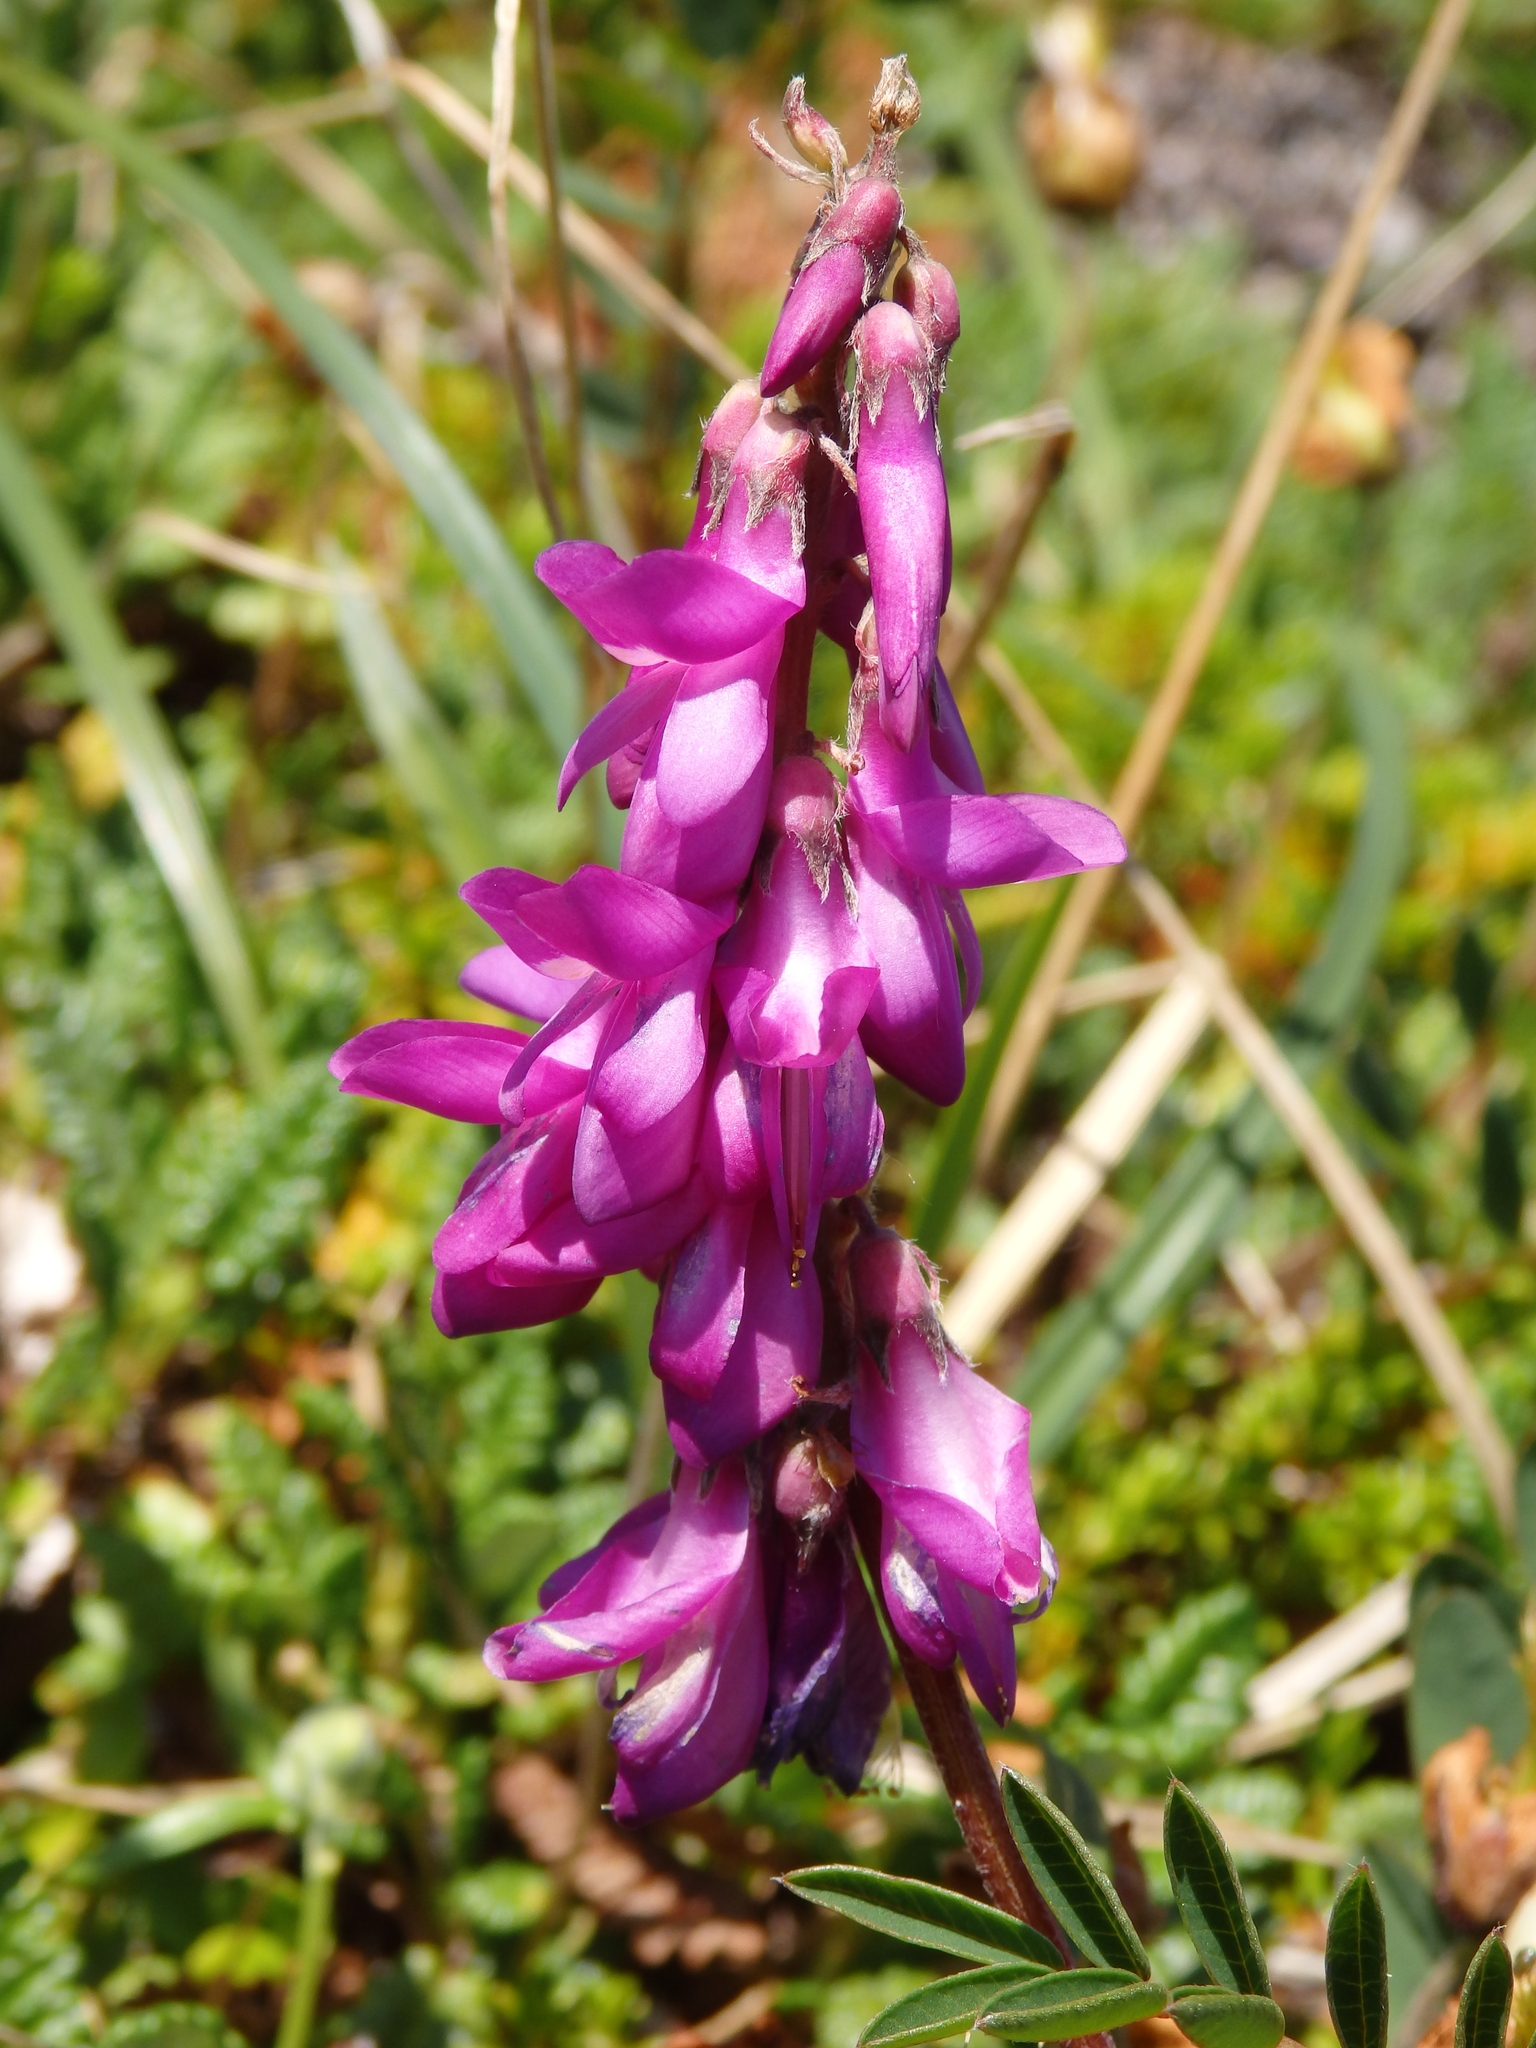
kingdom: Plantae
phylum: Tracheophyta
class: Magnoliopsida
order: Fabales
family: Fabaceae
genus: Hedysarum
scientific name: Hedysarum hedysaroides
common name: Alpine french-honeysuckle
